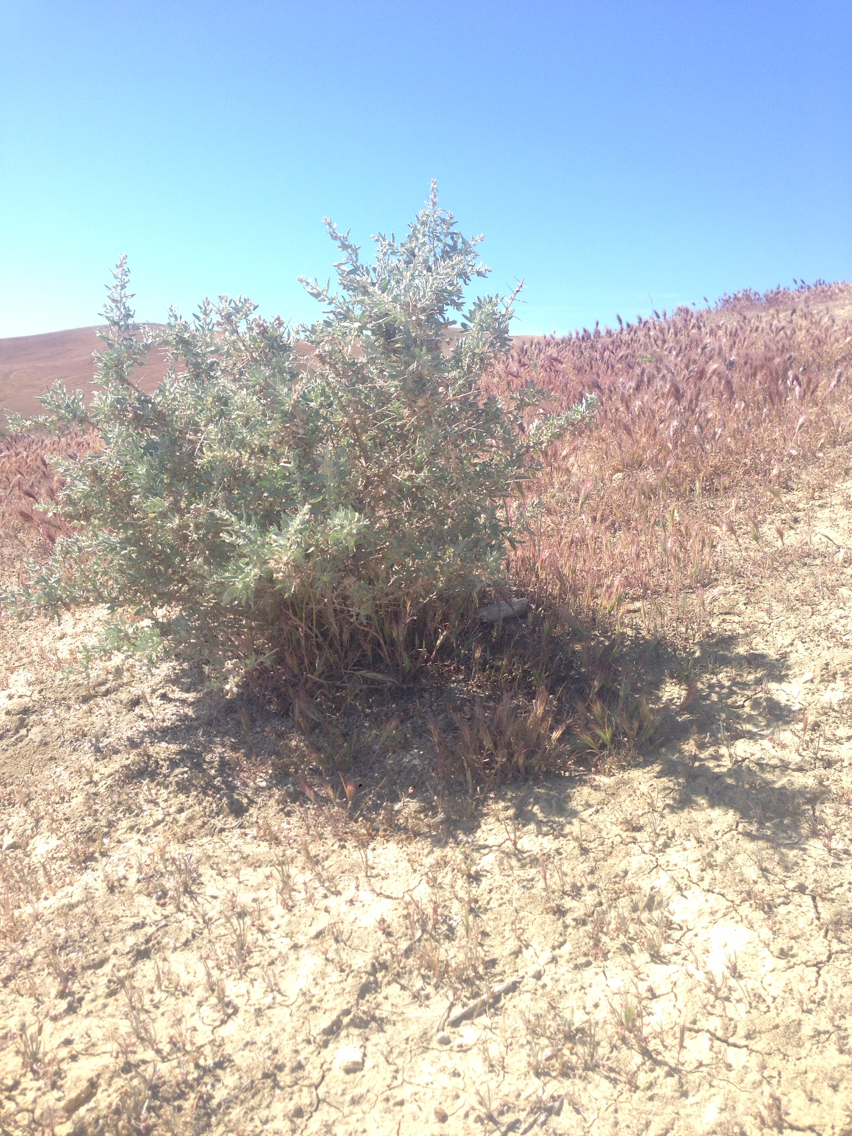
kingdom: Plantae
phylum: Tracheophyta
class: Magnoliopsida
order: Caryophyllales
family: Amaranthaceae
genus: Atriplex
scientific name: Atriplex spinifera
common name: Spiny saltbush
